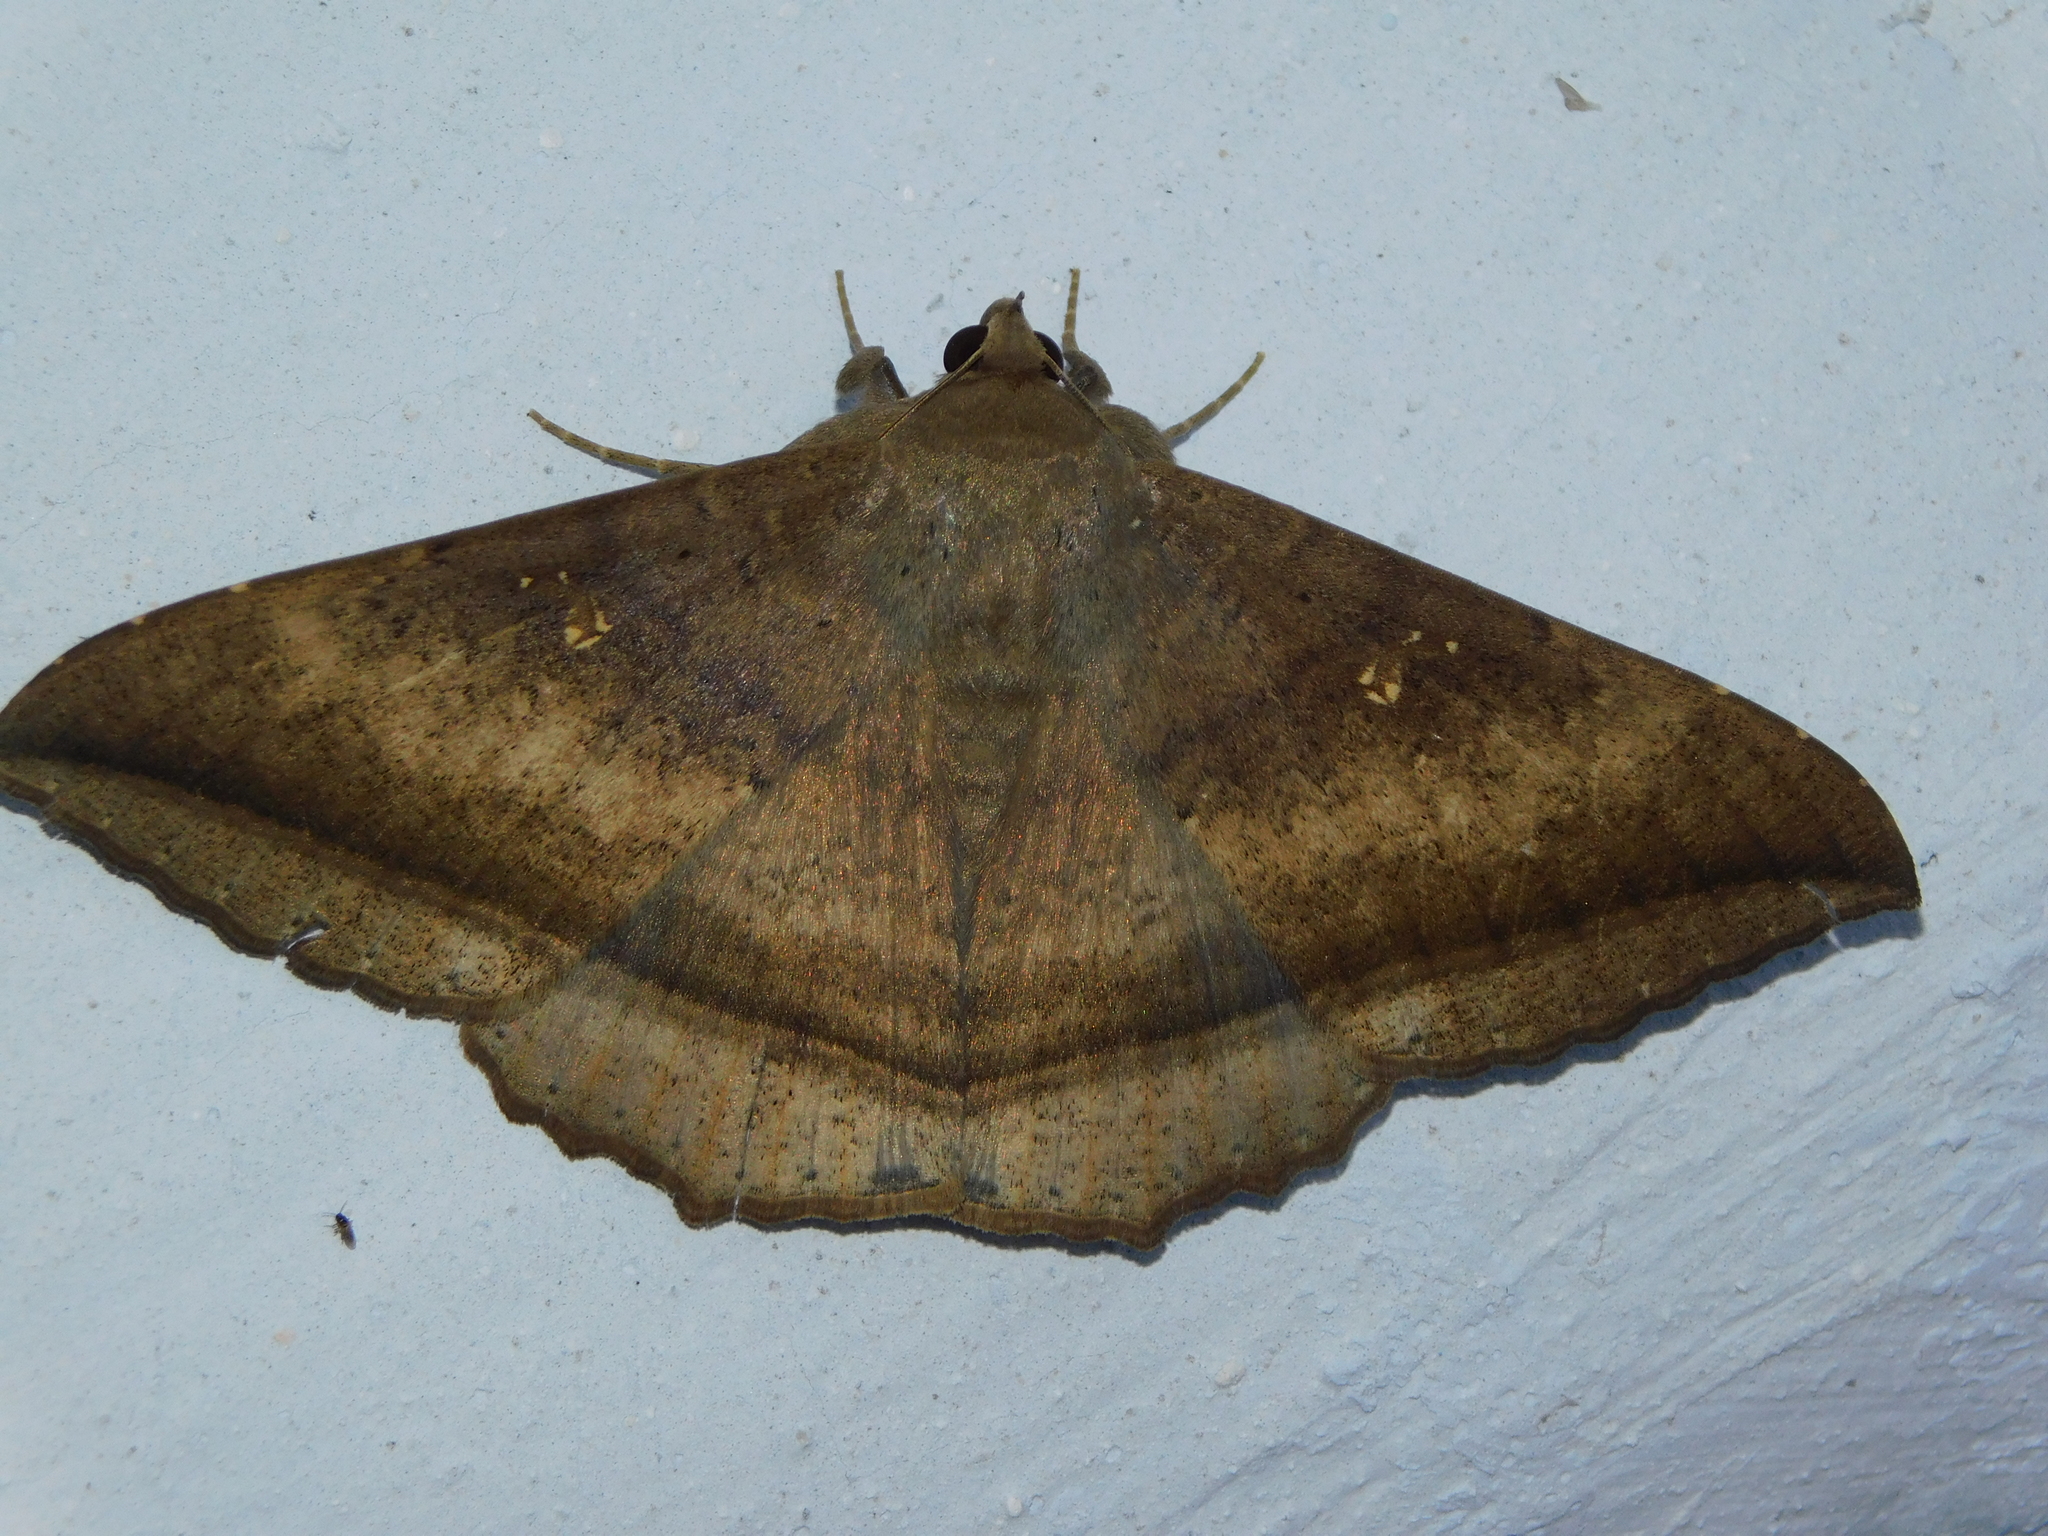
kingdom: Animalia
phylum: Arthropoda
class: Insecta
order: Lepidoptera
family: Erebidae
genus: Hulodes
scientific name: Hulodes caranea
